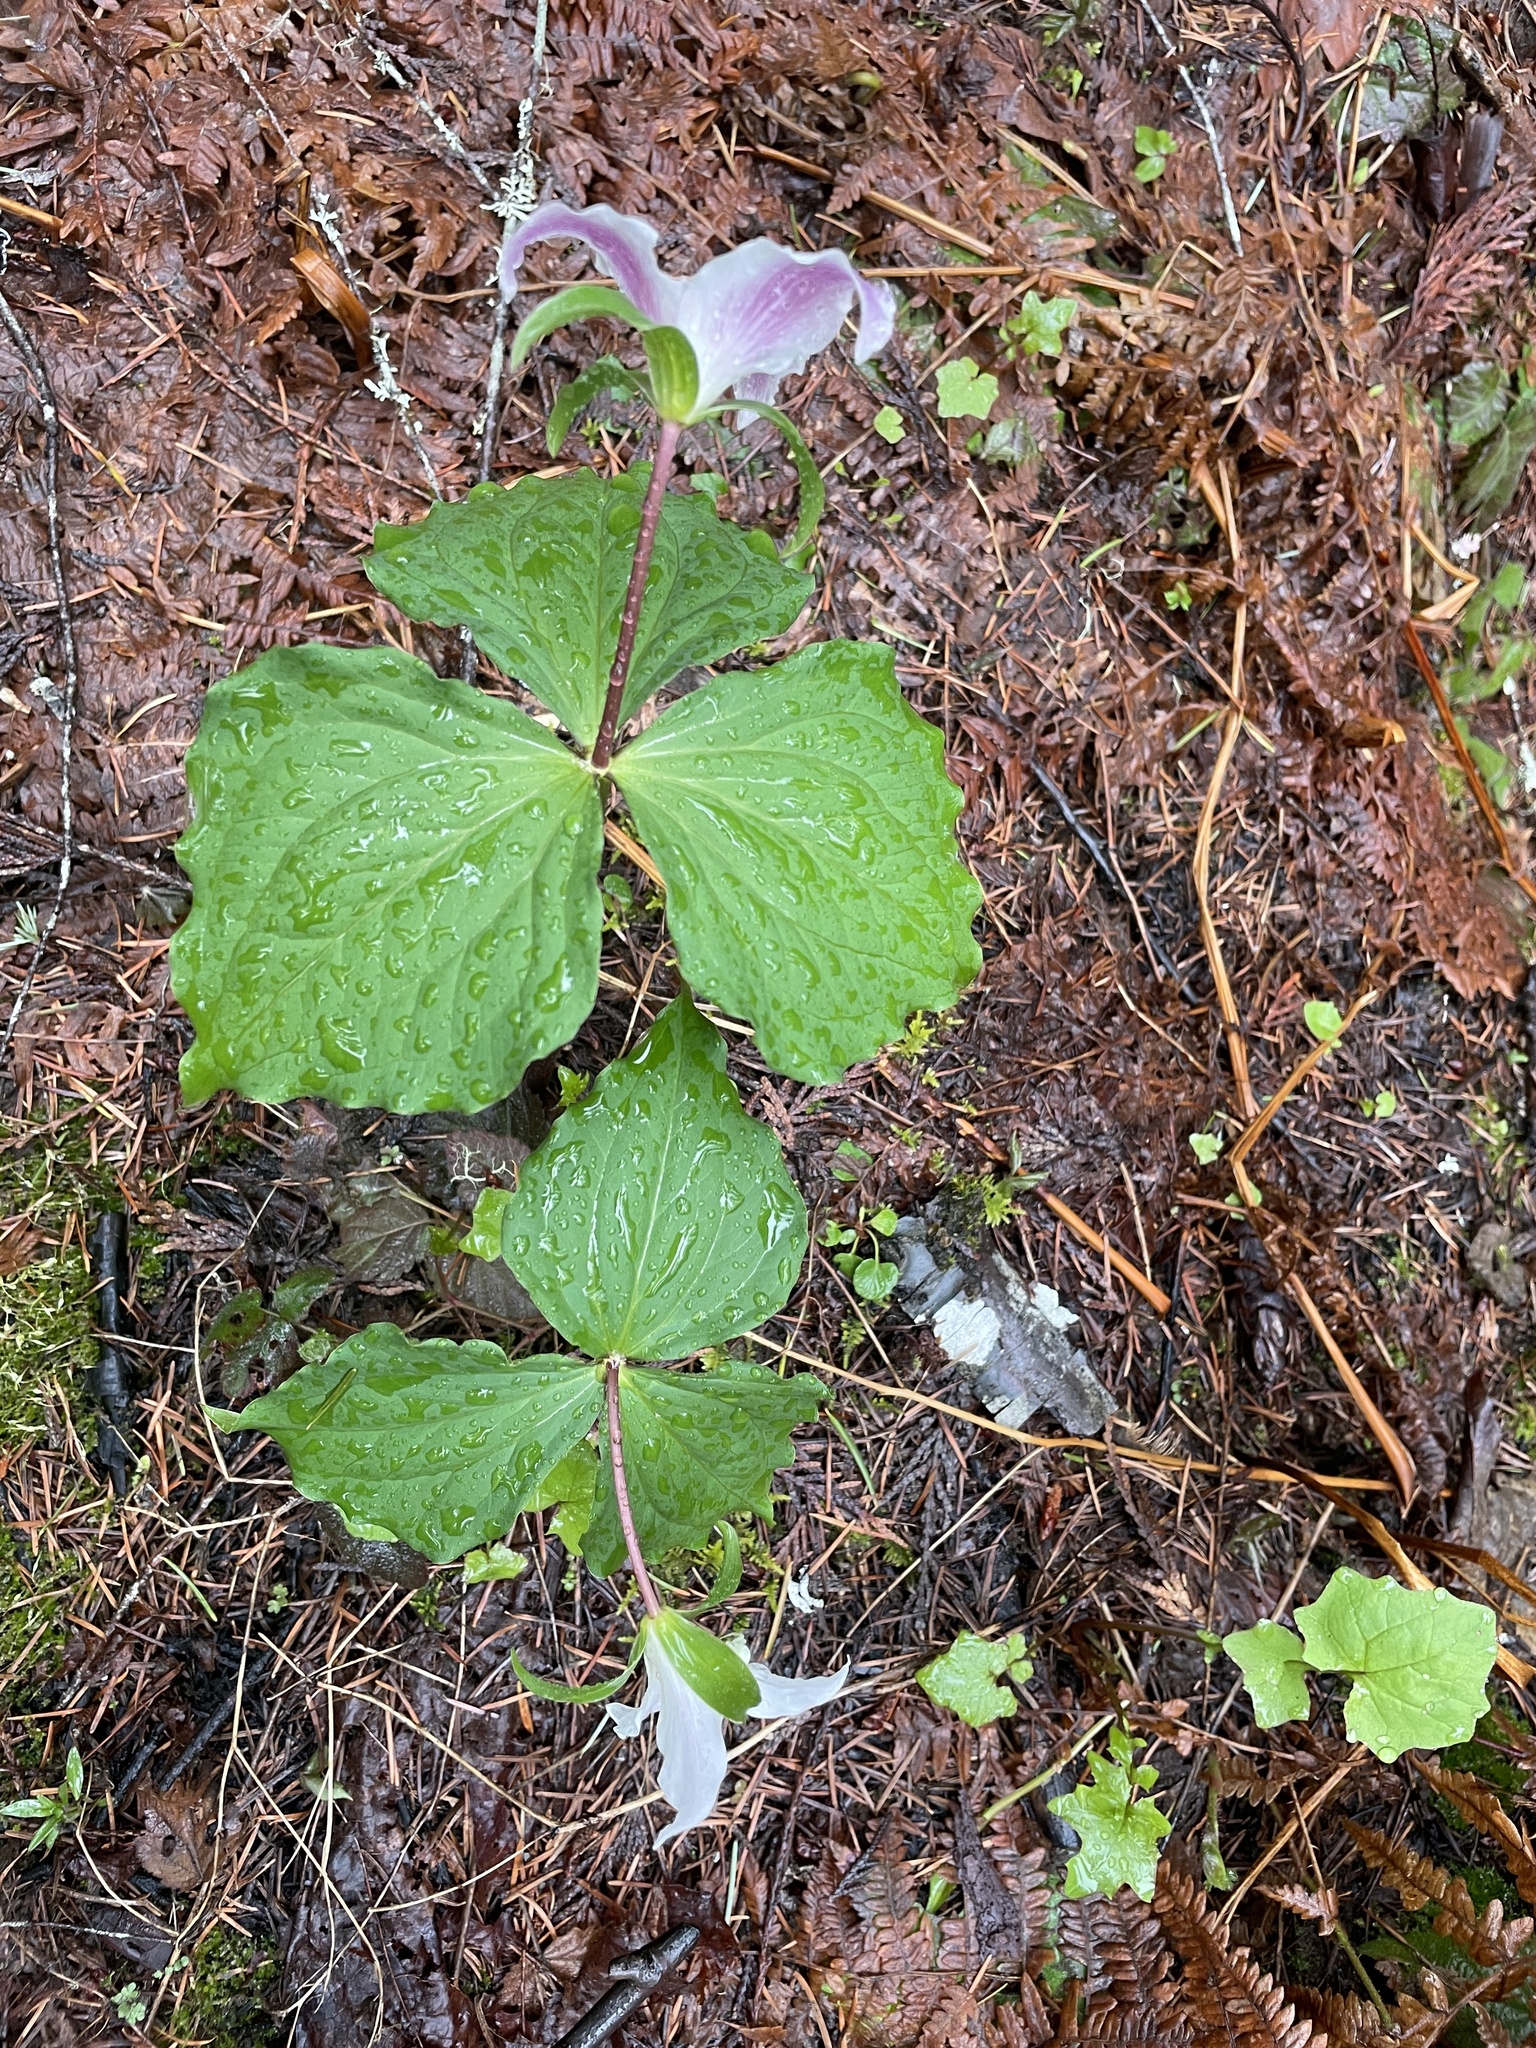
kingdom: Plantae
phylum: Tracheophyta
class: Liliopsida
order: Liliales
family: Melanthiaceae
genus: Trillium
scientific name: Trillium ovatum
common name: Pacific trillium
